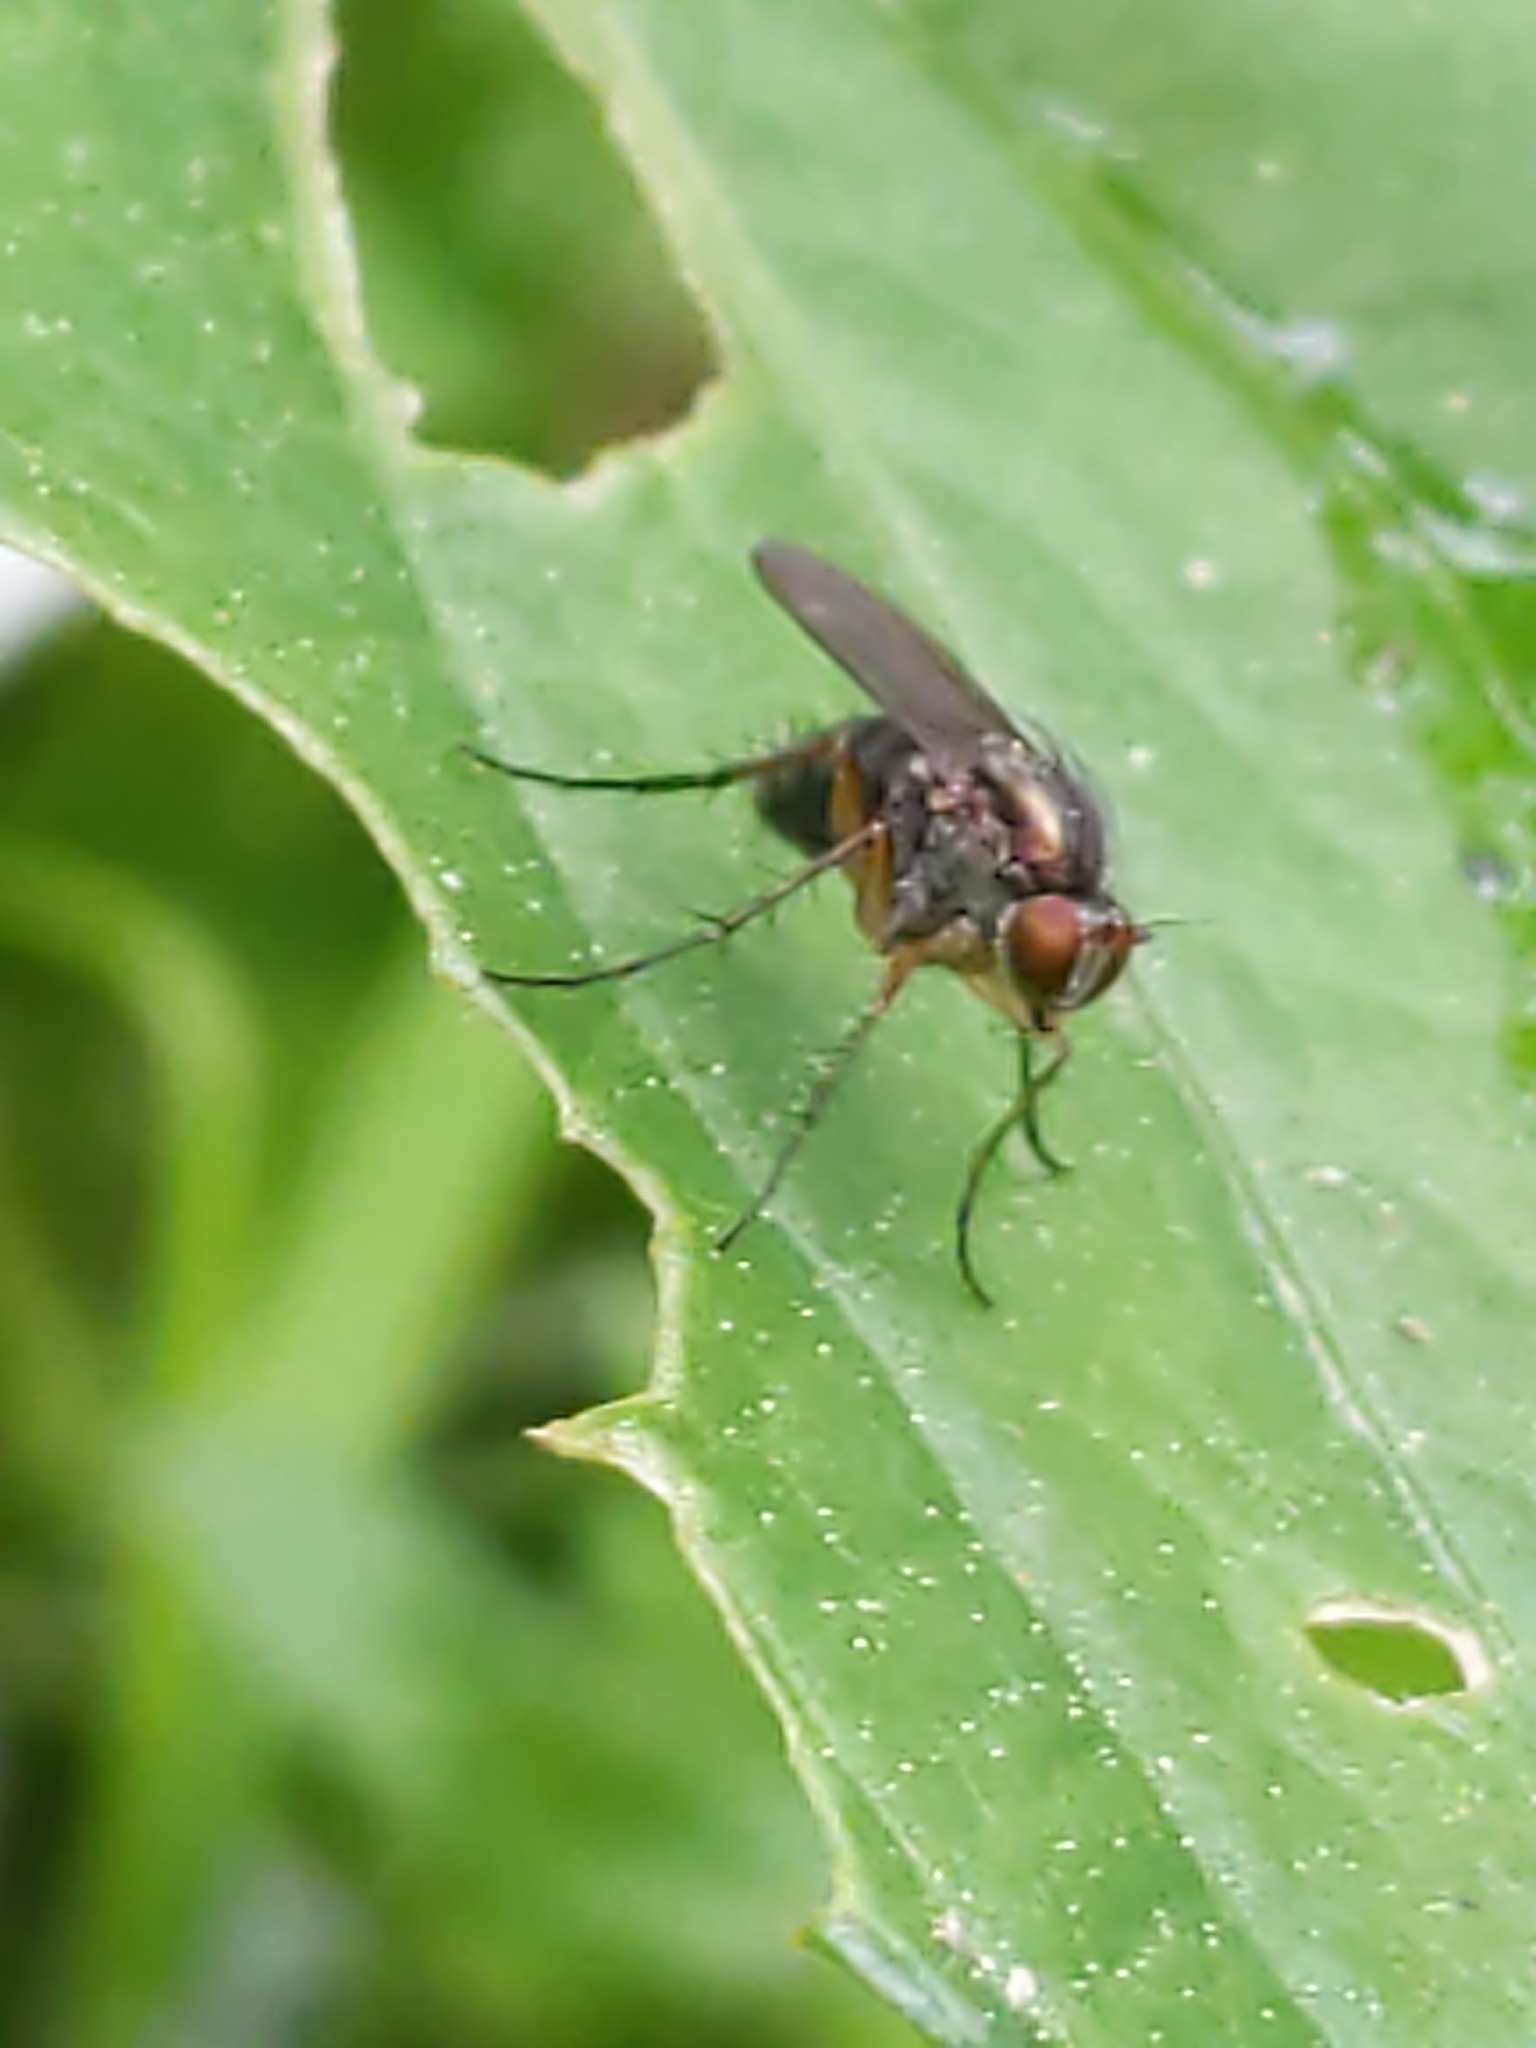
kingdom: Animalia
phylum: Arthropoda
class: Insecta
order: Diptera
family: Dolichopodidae
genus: Dolichopus
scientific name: Dolichopus
